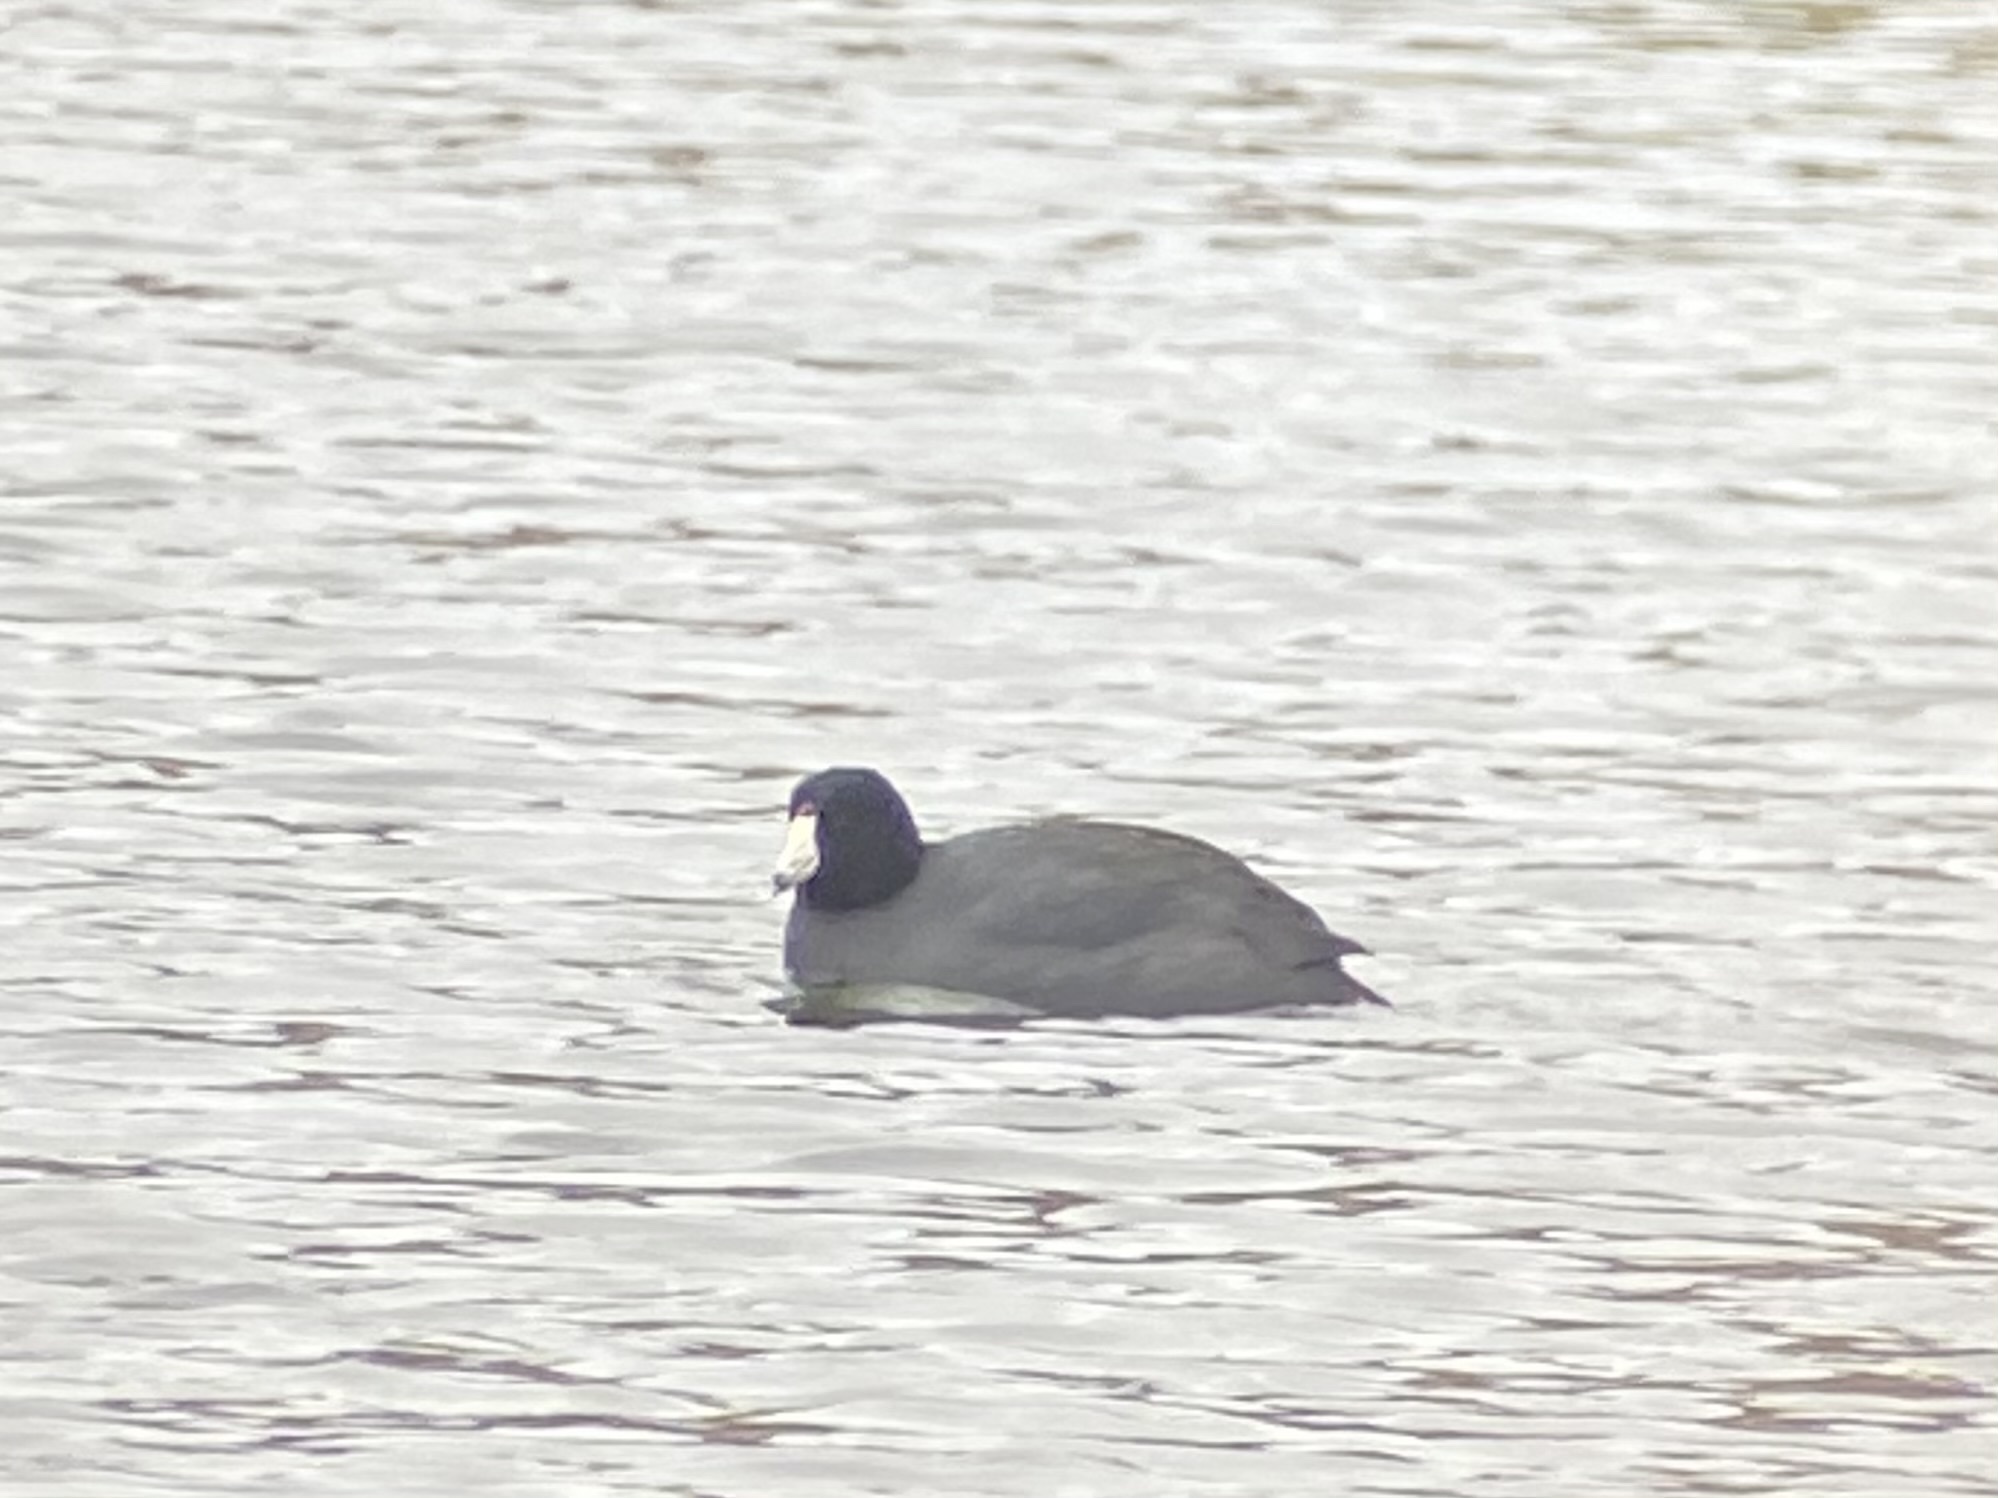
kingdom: Animalia
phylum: Chordata
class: Aves
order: Gruiformes
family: Rallidae
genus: Fulica
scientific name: Fulica americana
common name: American coot
